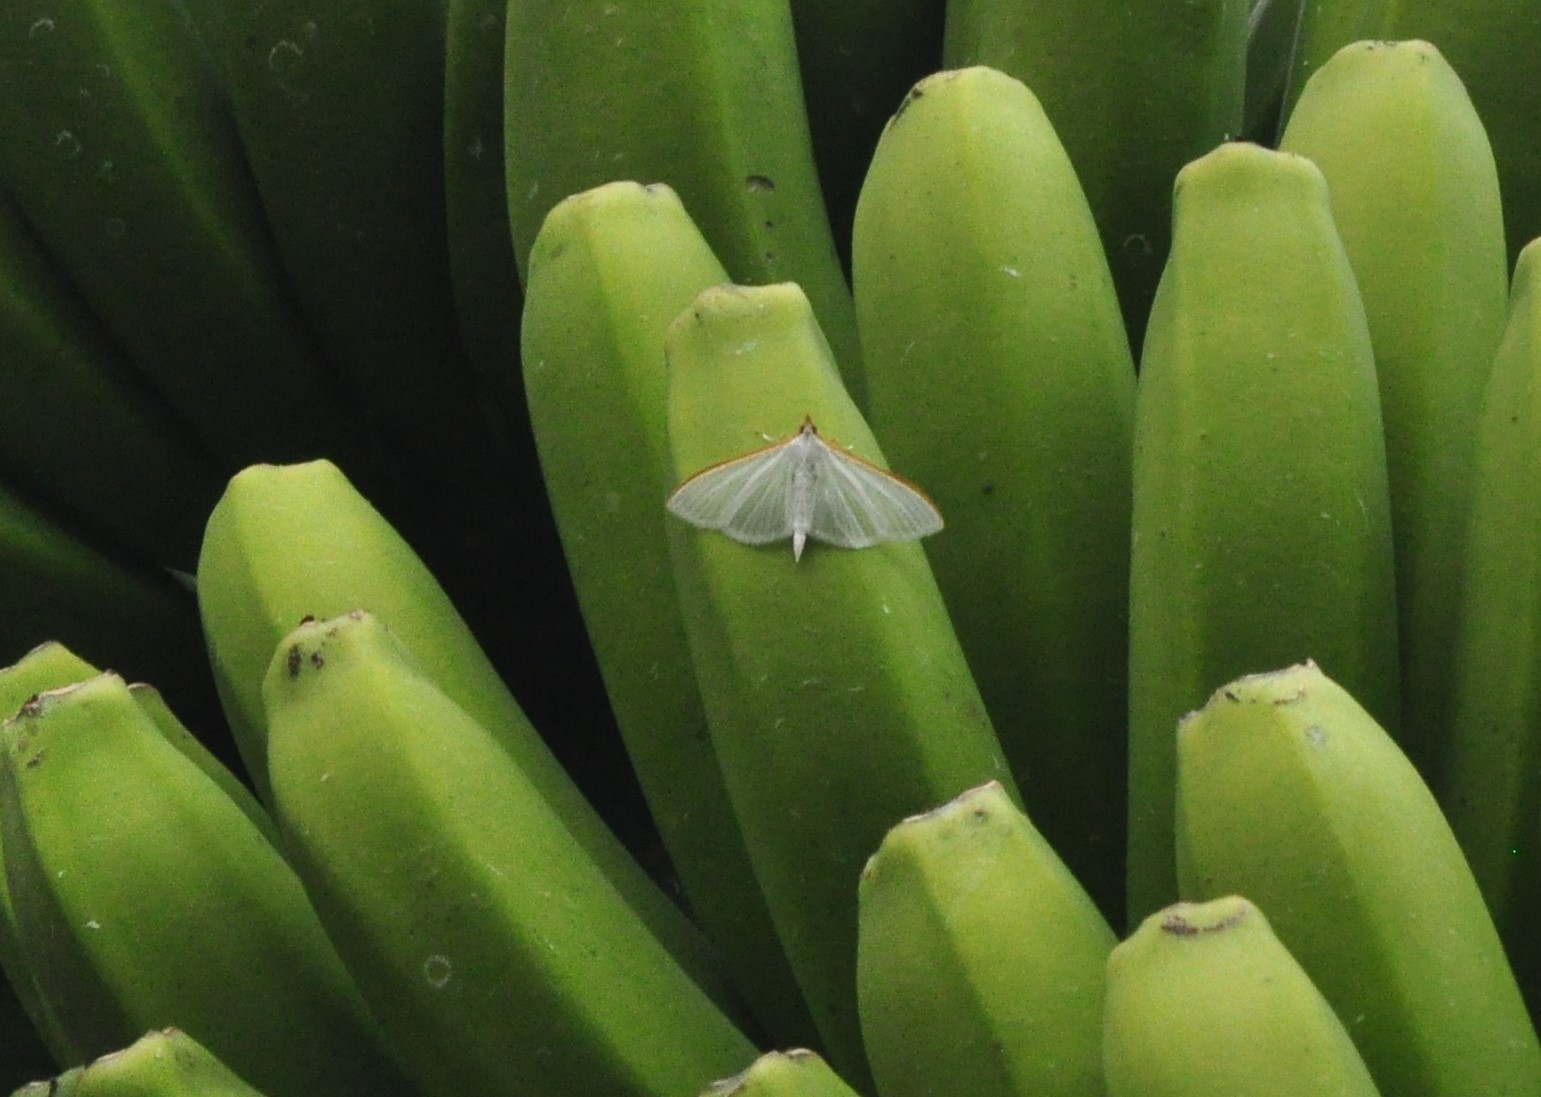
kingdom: Animalia
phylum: Arthropoda
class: Insecta
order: Lepidoptera
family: Crambidae
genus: Palpita
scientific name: Palpita vitrealis
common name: Olive-tree pearl
